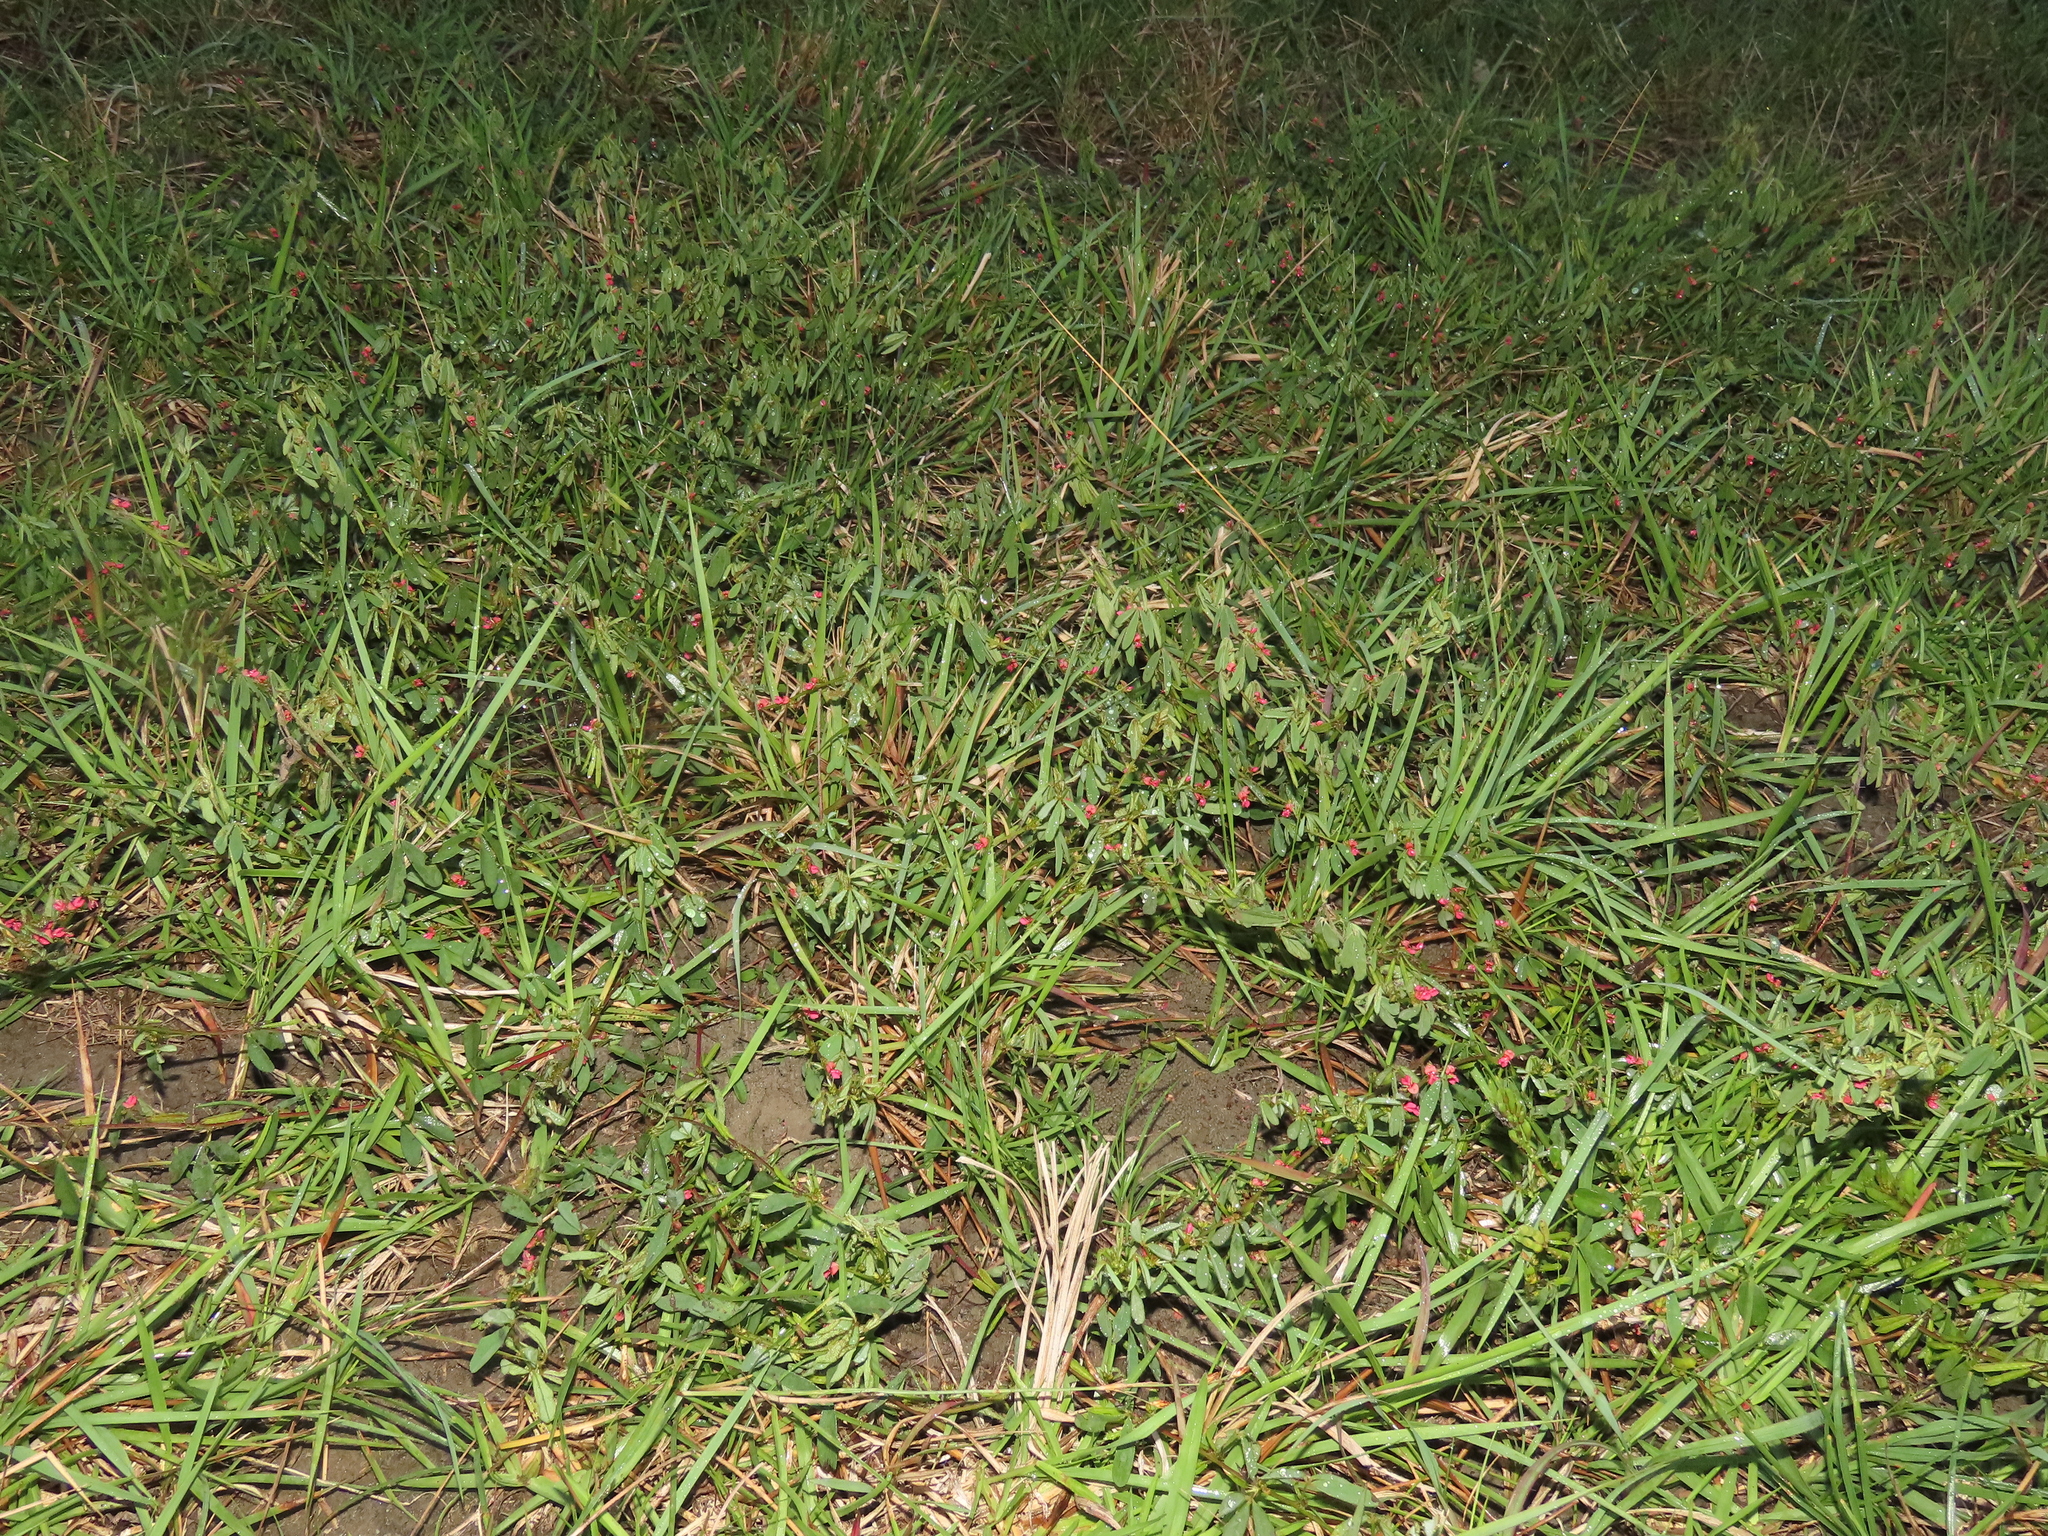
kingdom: Plantae
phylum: Tracheophyta
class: Magnoliopsida
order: Fabales
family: Fabaceae
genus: Indigofera
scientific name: Indigofera trifoliata
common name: Threeleaf indigo
